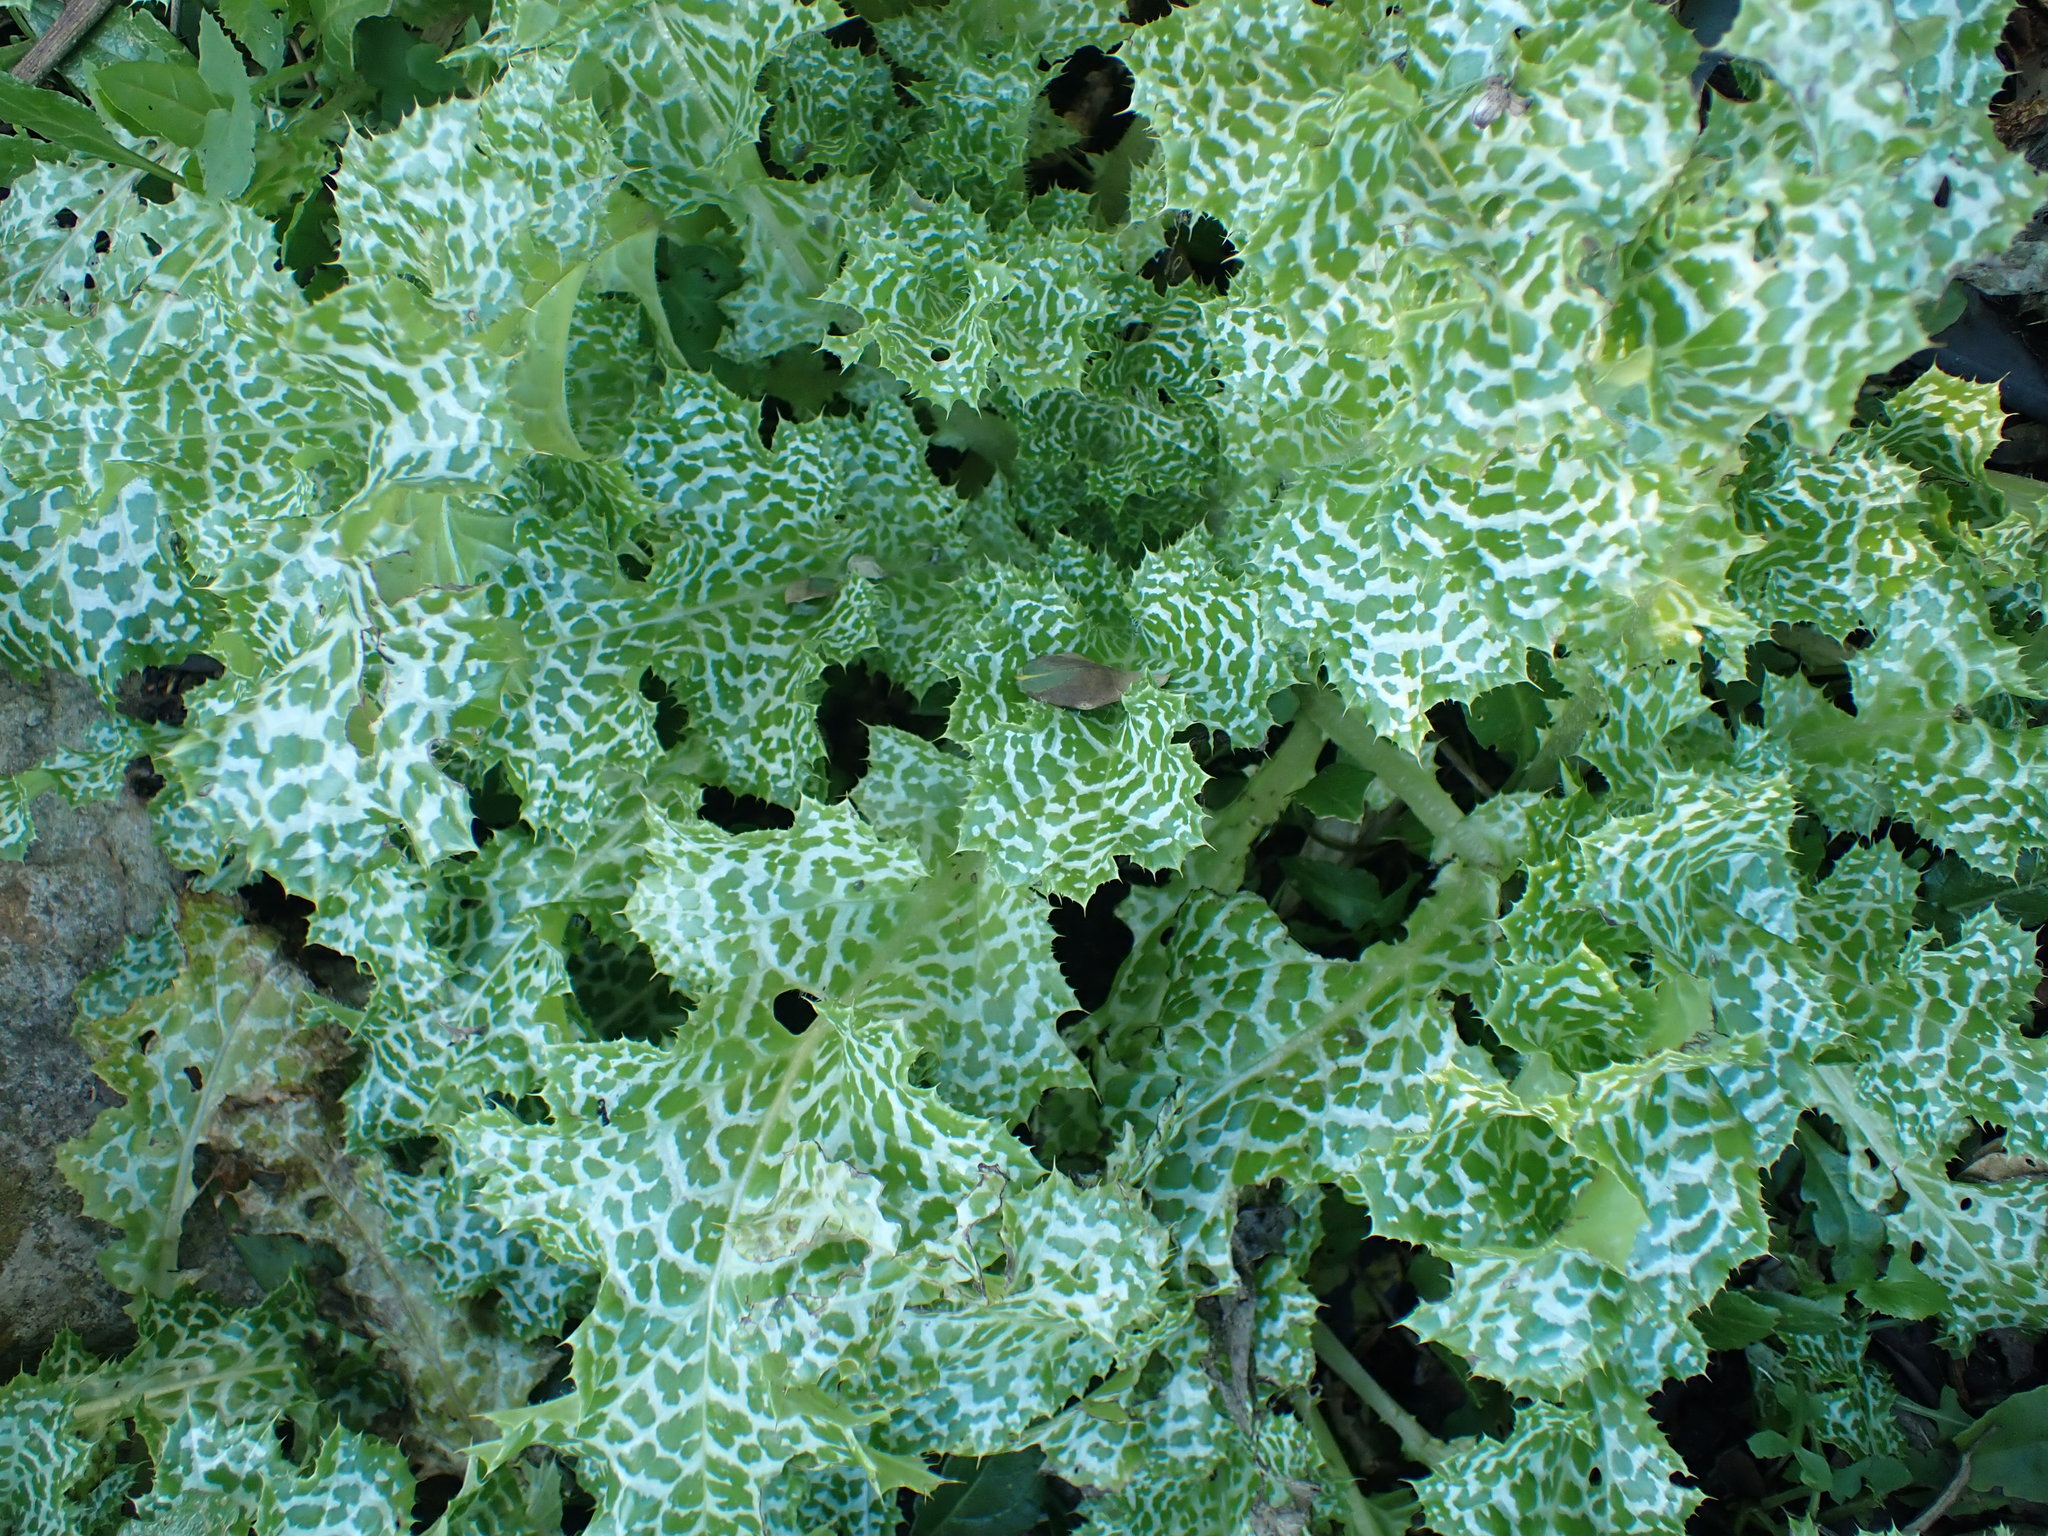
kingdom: Plantae
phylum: Tracheophyta
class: Magnoliopsida
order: Asterales
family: Asteraceae
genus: Silybum
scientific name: Silybum marianum
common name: Milk thistle
